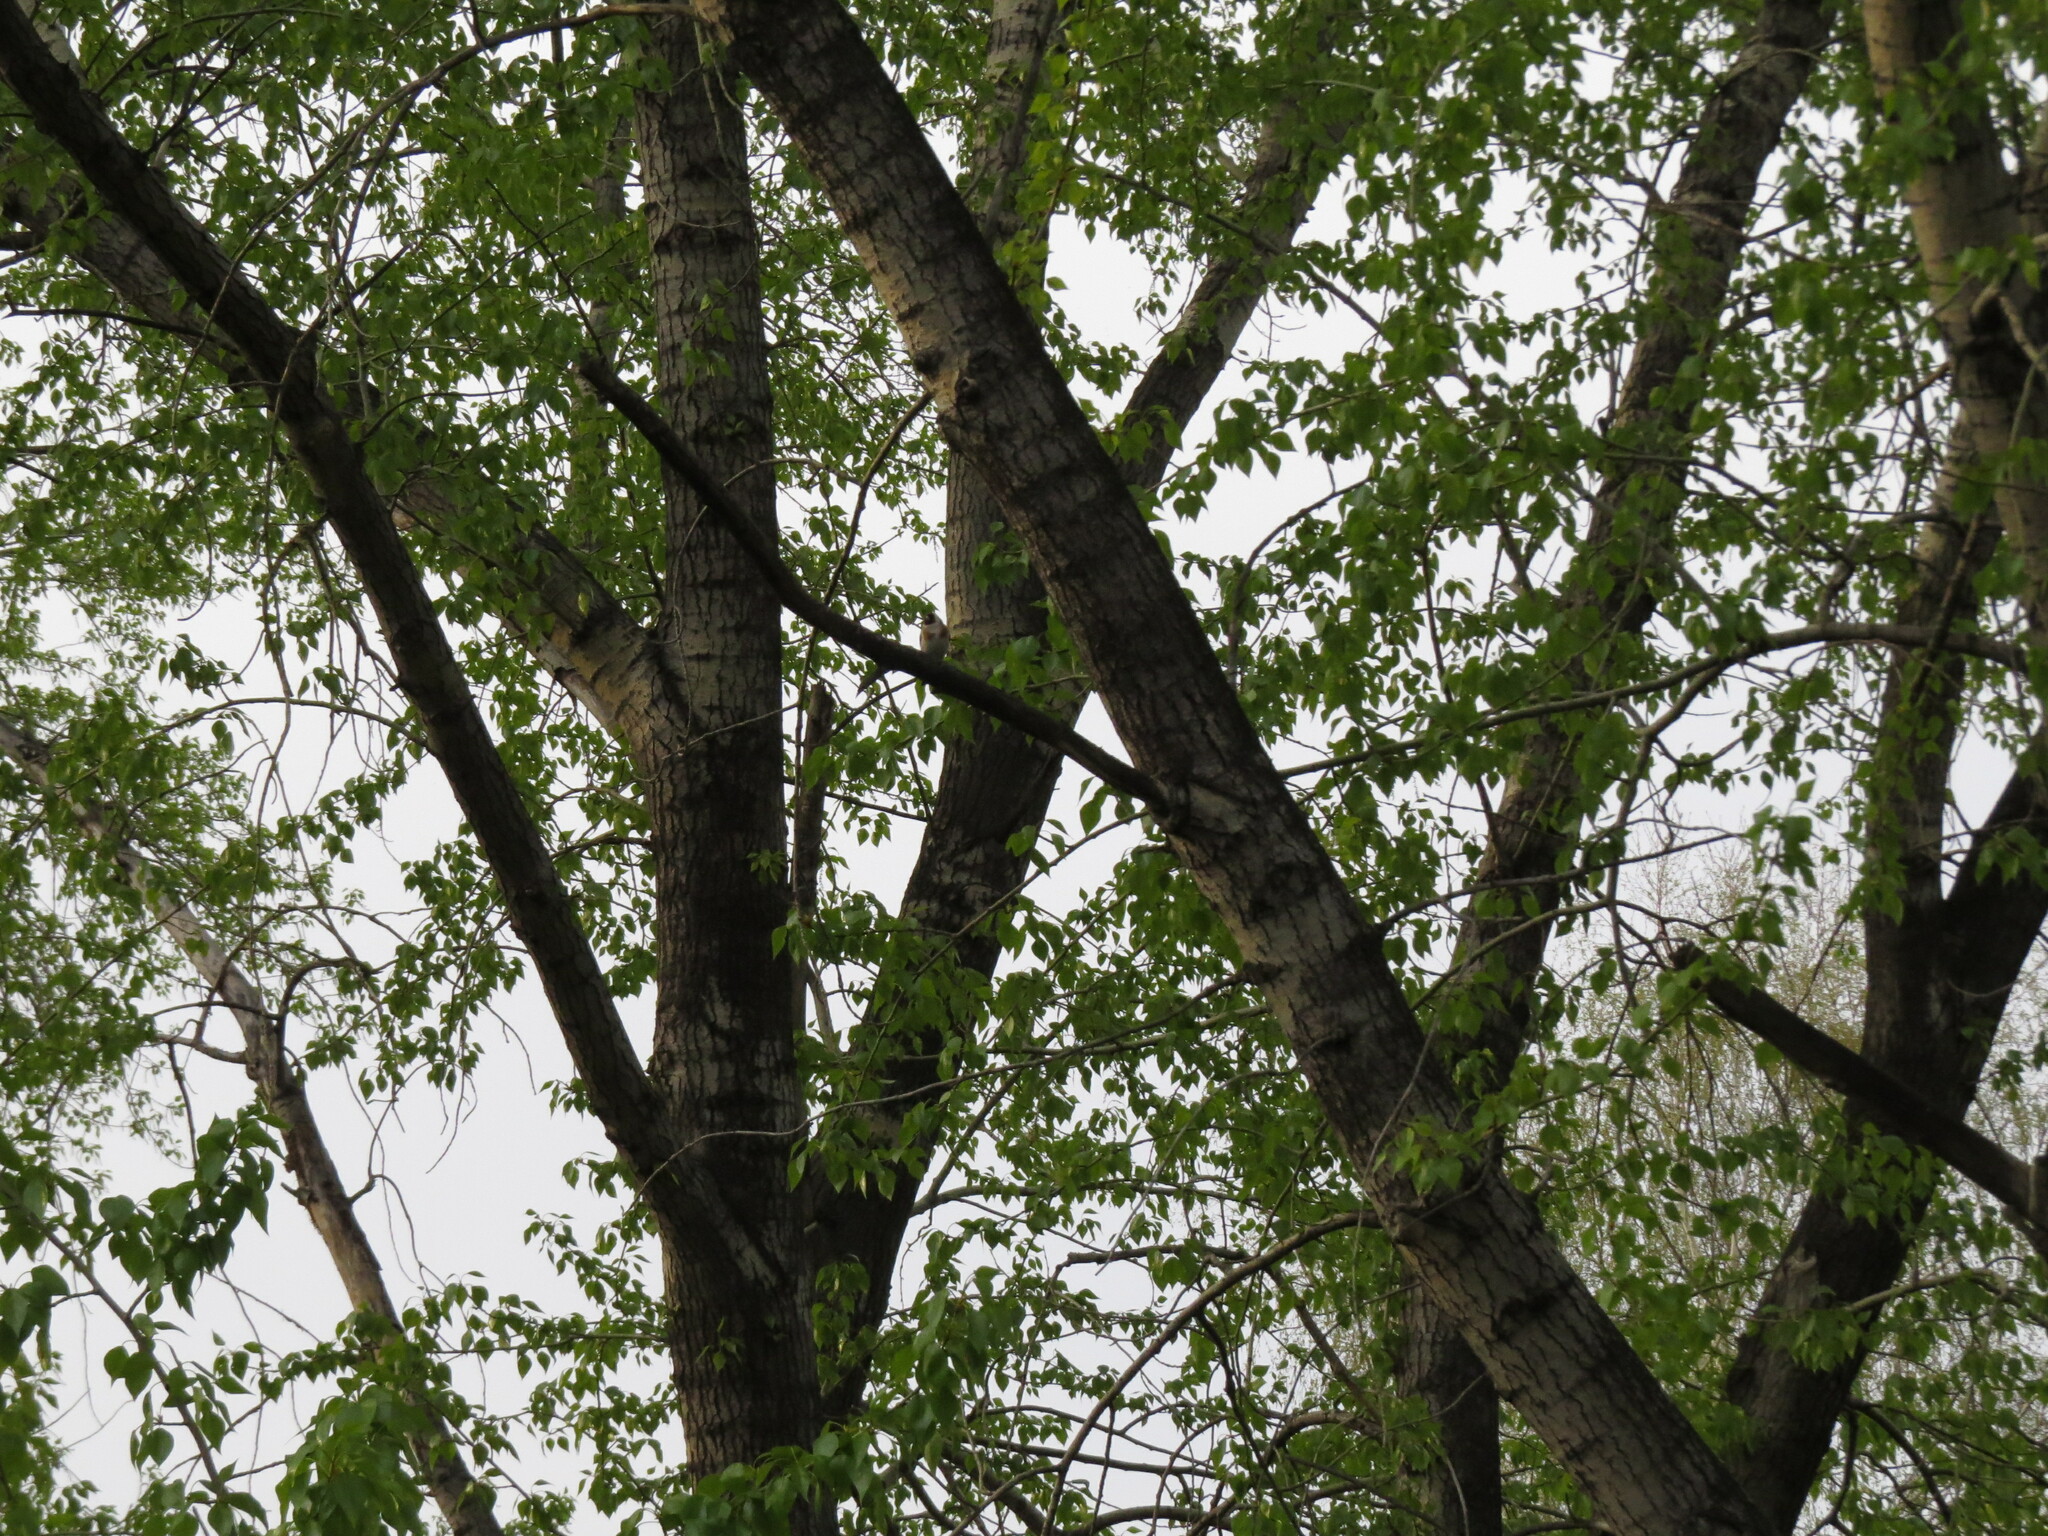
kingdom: Animalia
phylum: Chordata
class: Aves
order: Passeriformes
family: Fringillidae
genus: Carduelis
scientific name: Carduelis carduelis
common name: European goldfinch
